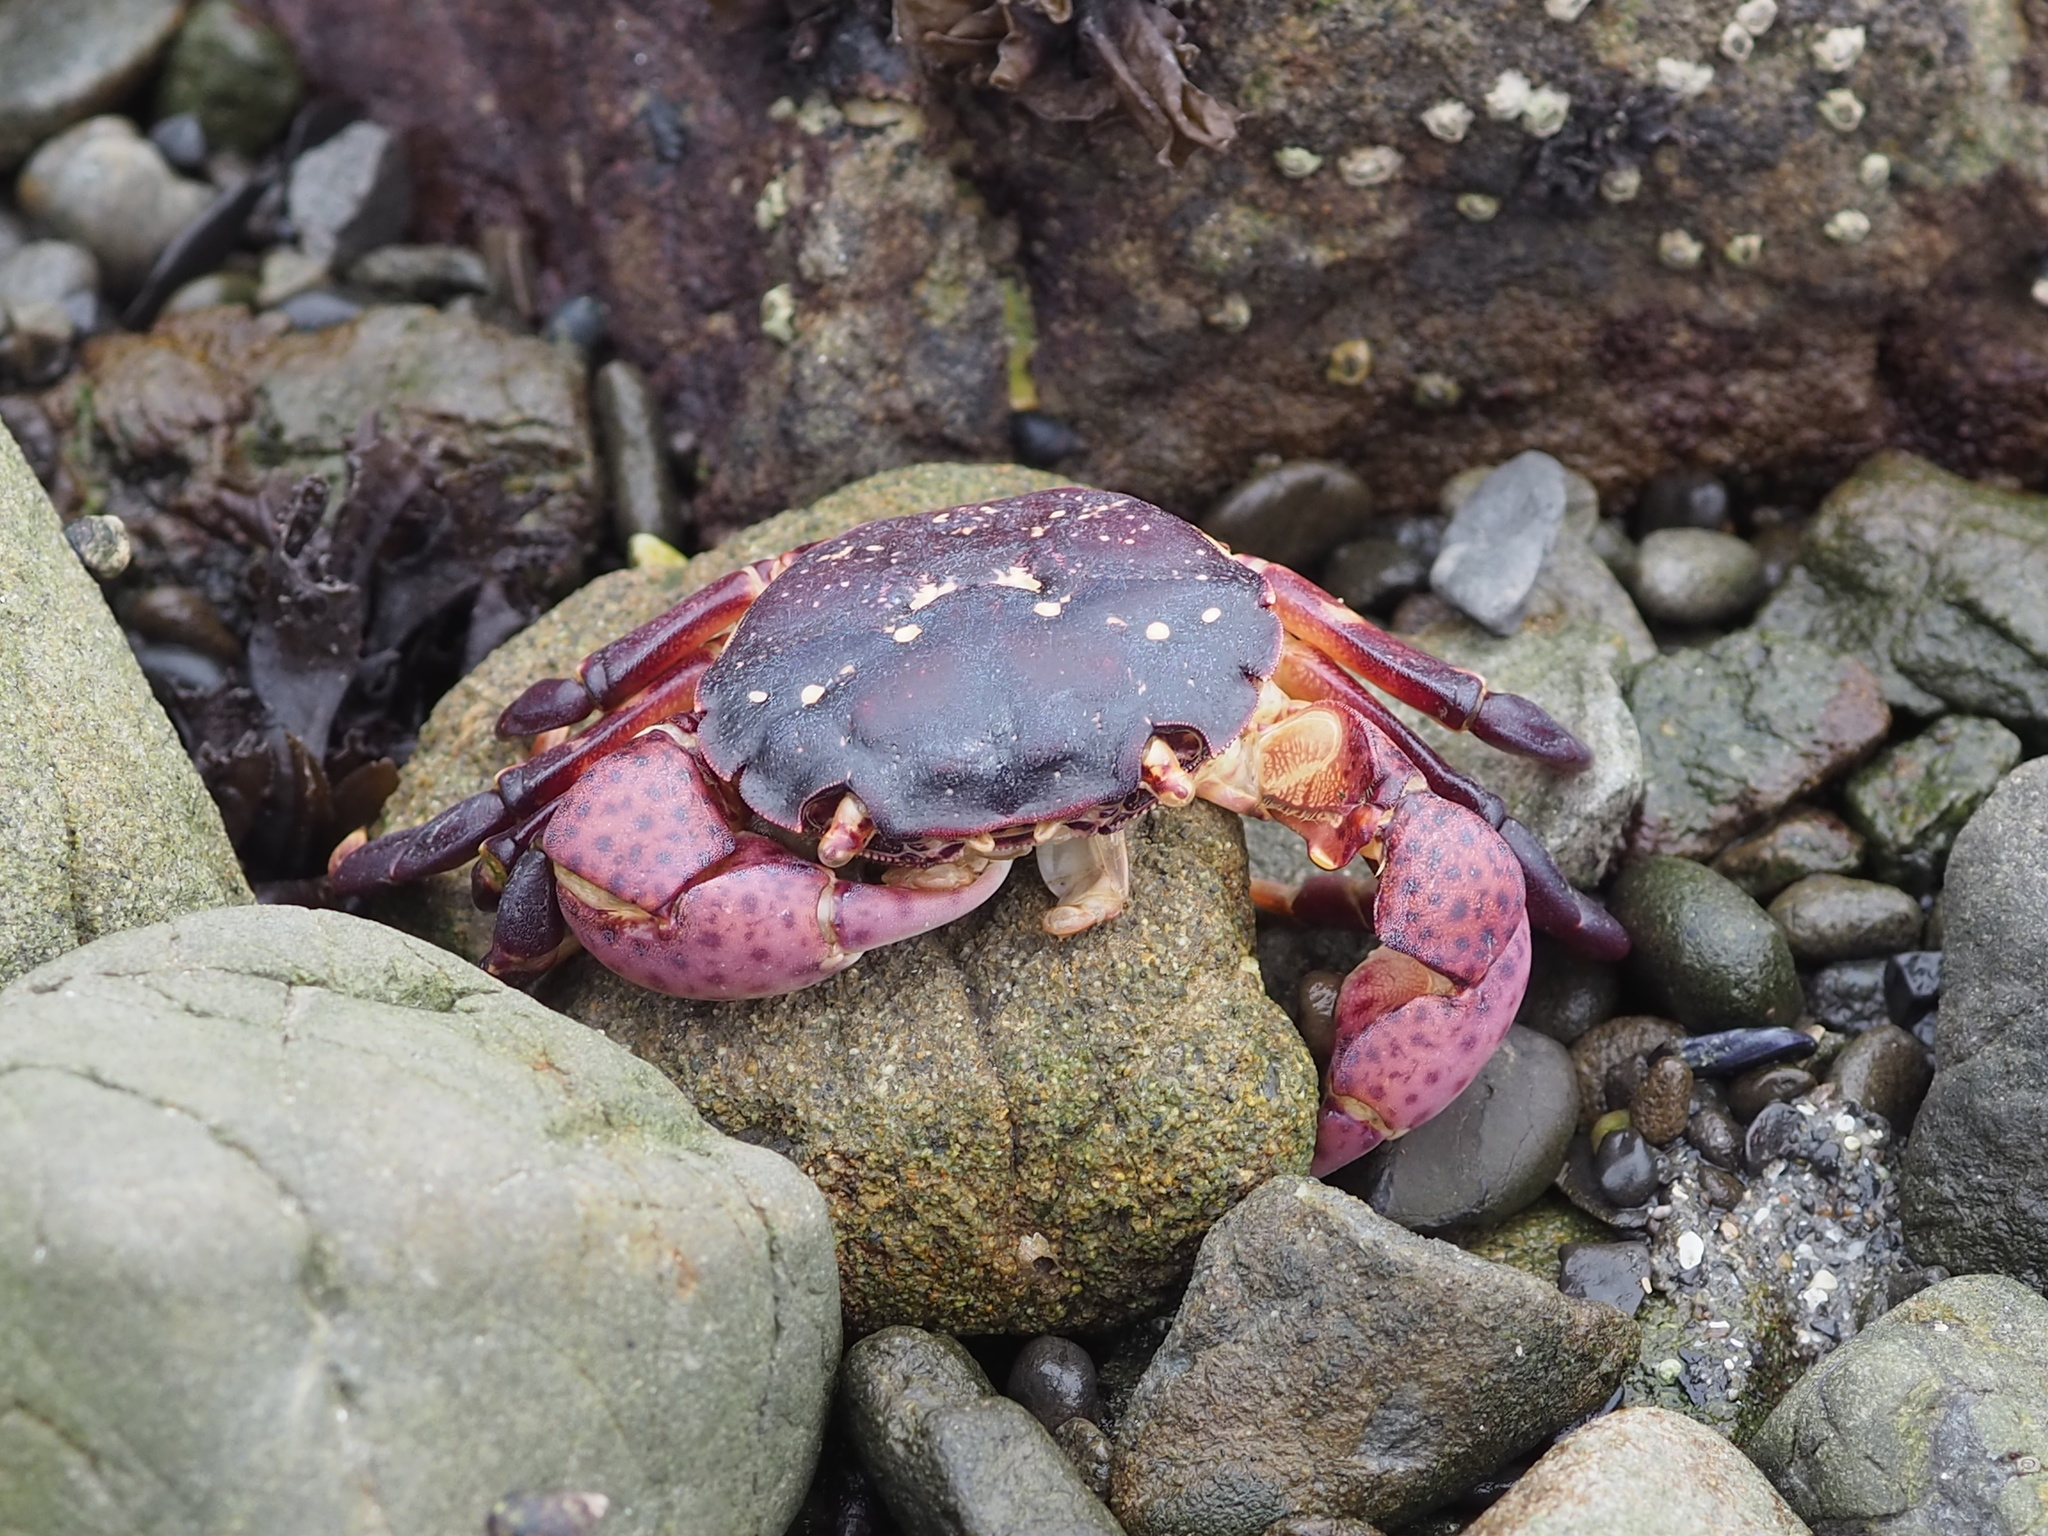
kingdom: Animalia
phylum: Arthropoda
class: Malacostraca
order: Decapoda
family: Varunidae
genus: Hemigrapsus
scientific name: Hemigrapsus nudus
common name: Purple shore crab
